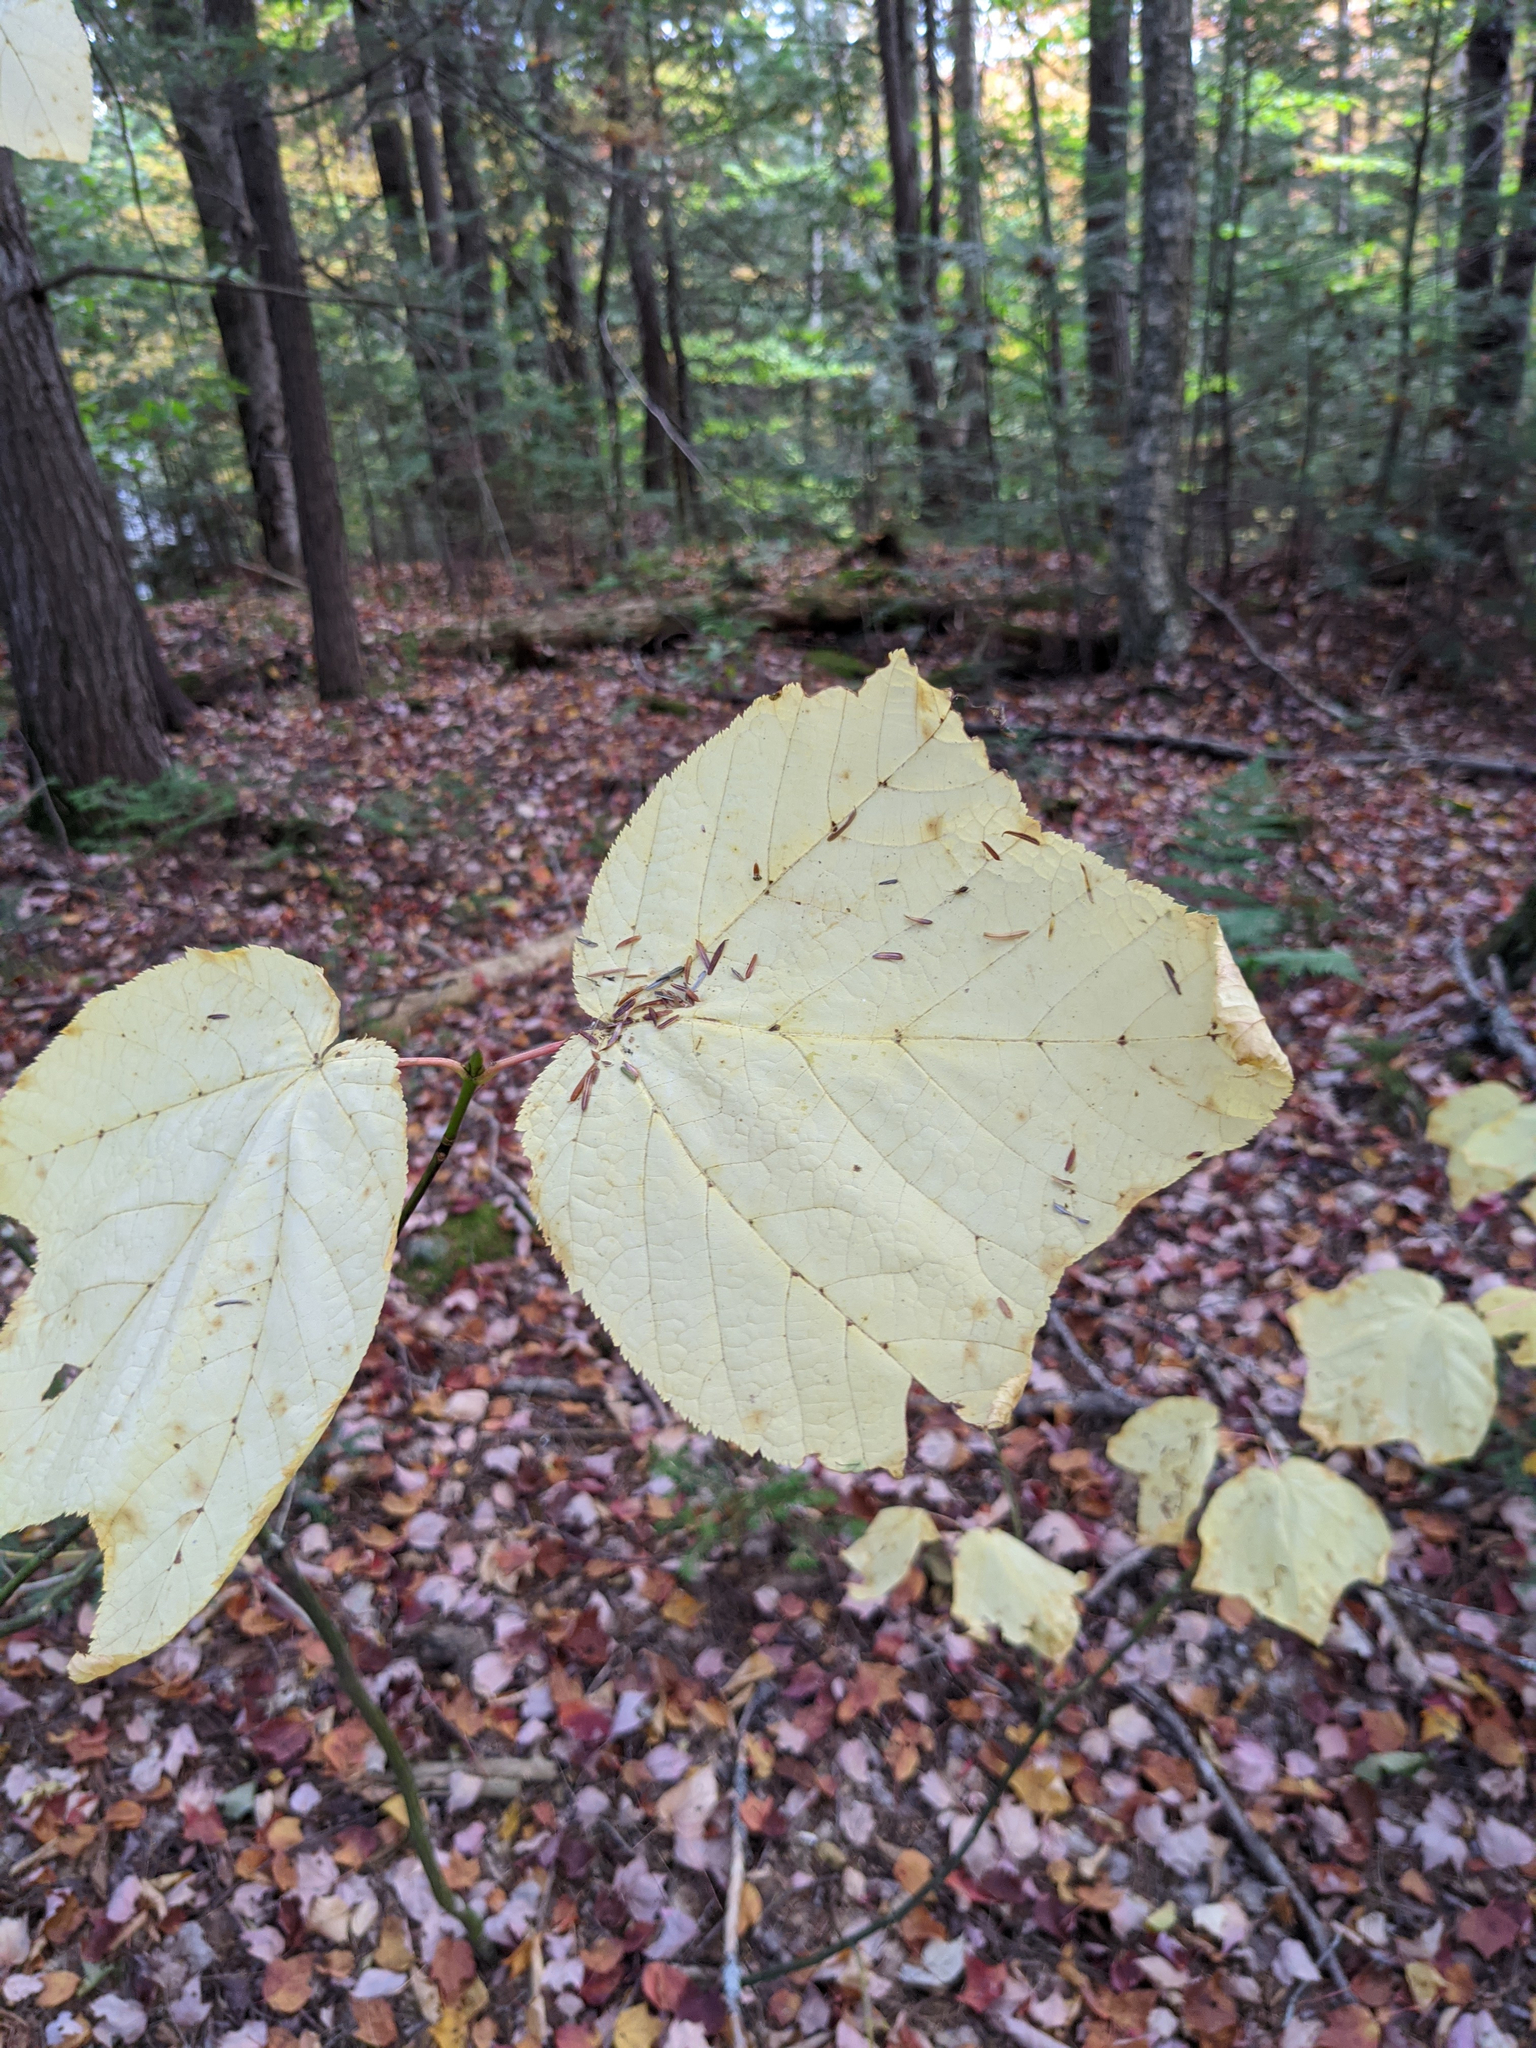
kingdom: Plantae
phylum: Tracheophyta
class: Magnoliopsida
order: Sapindales
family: Sapindaceae
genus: Acer
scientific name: Acer pensylvanicum
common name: Moosewood
